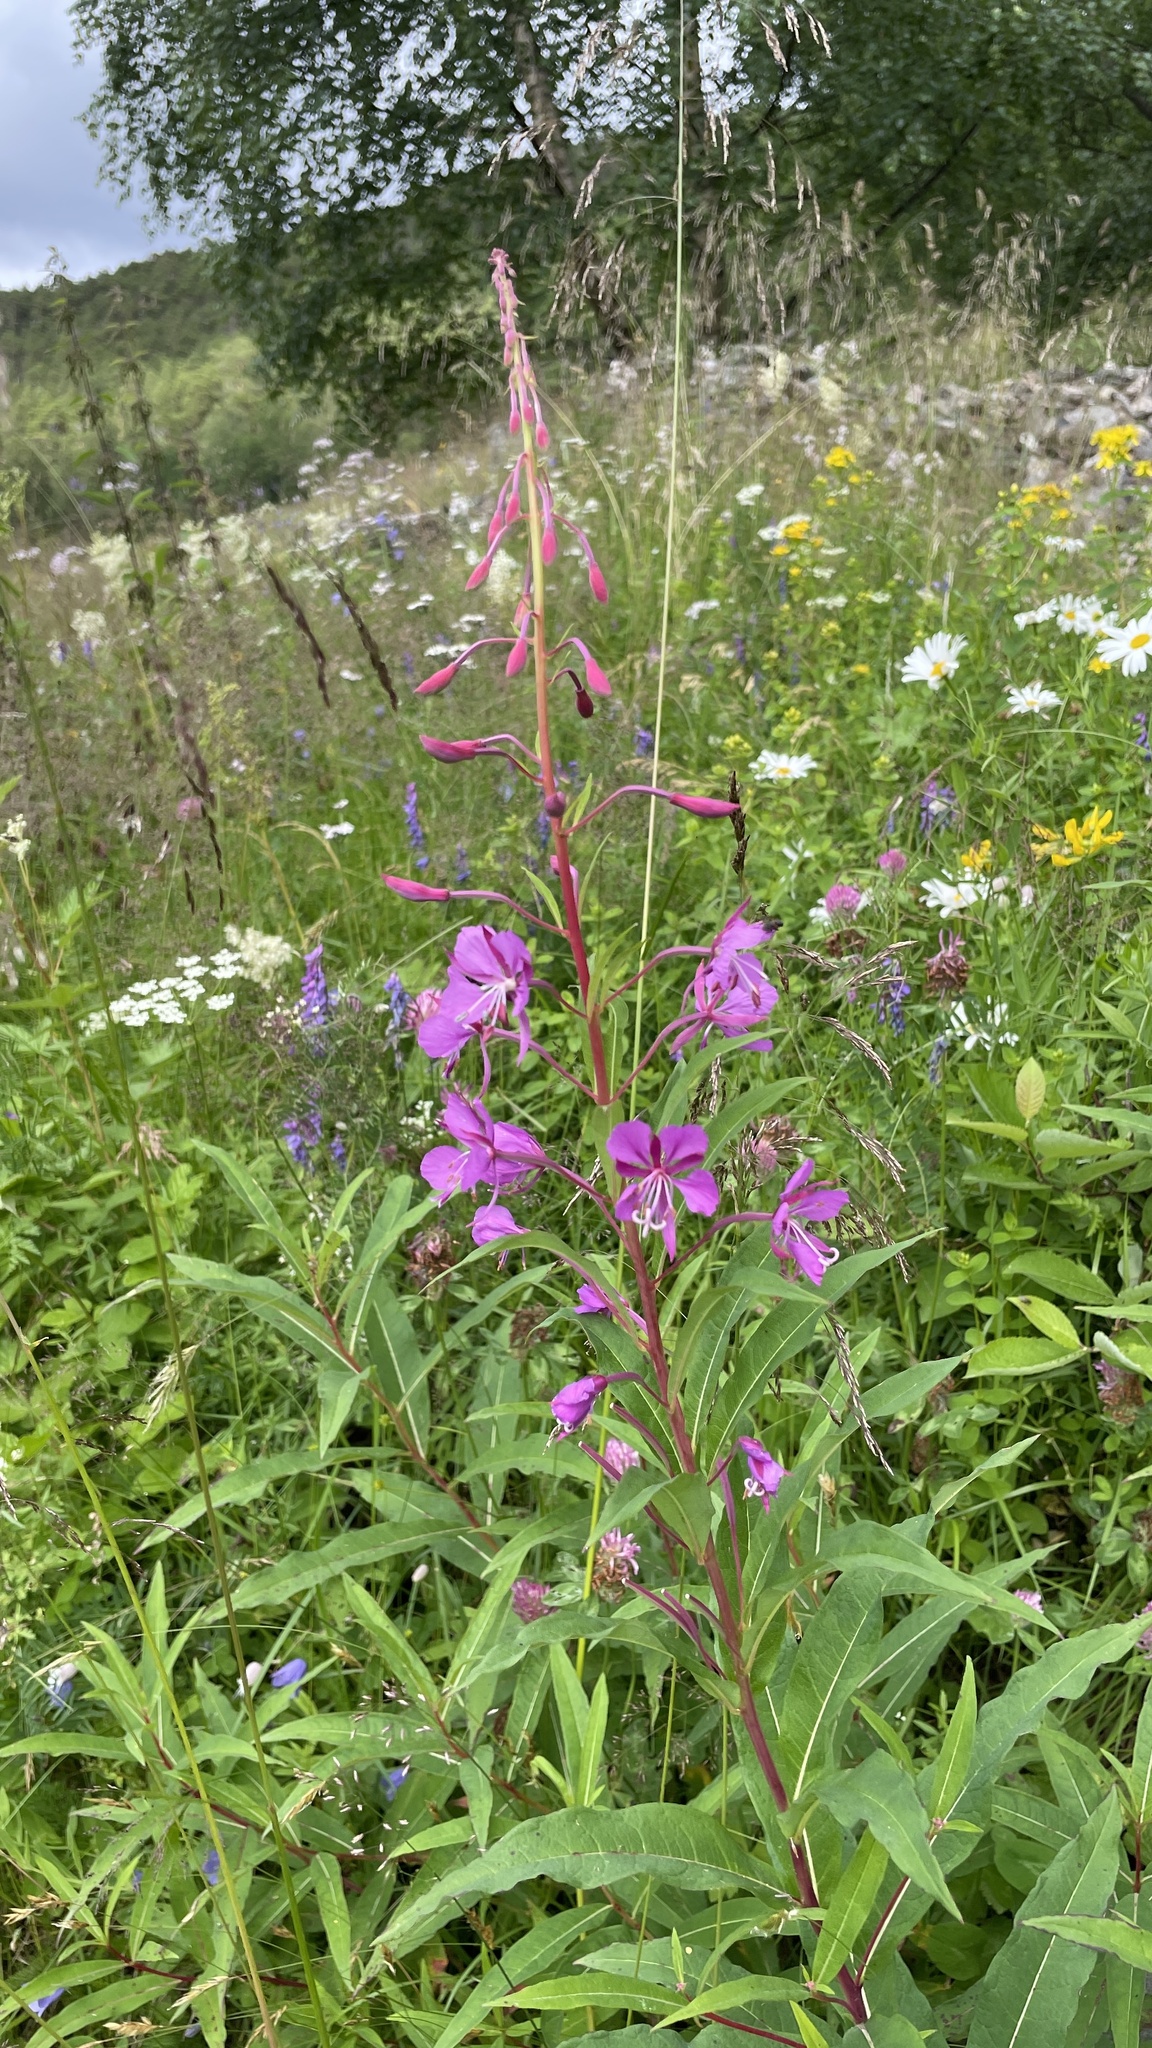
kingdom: Plantae
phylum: Tracheophyta
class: Magnoliopsida
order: Myrtales
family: Onagraceae
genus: Chamaenerion
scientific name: Chamaenerion angustifolium
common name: Fireweed
